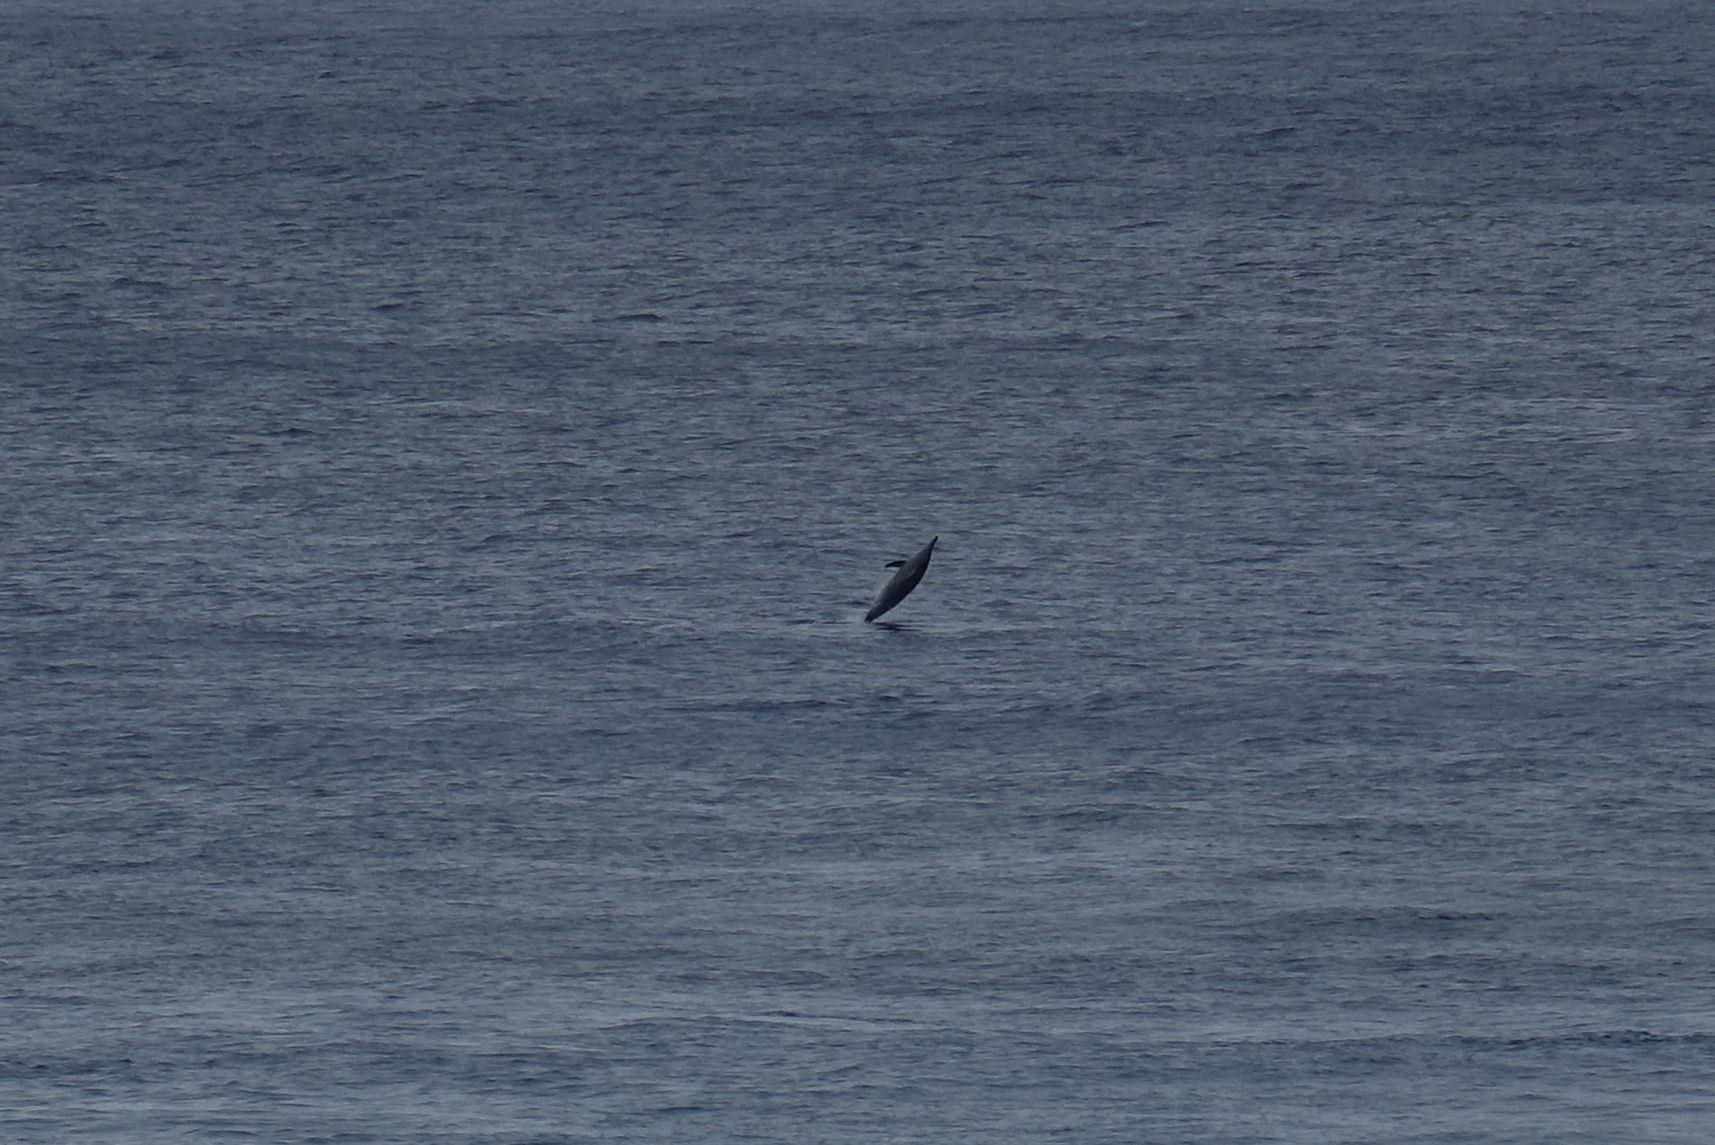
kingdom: Animalia
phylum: Chordata
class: Mammalia
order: Cetacea
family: Delphinidae
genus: Stenella
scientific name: Stenella longirostris
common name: Spinner dolphin
